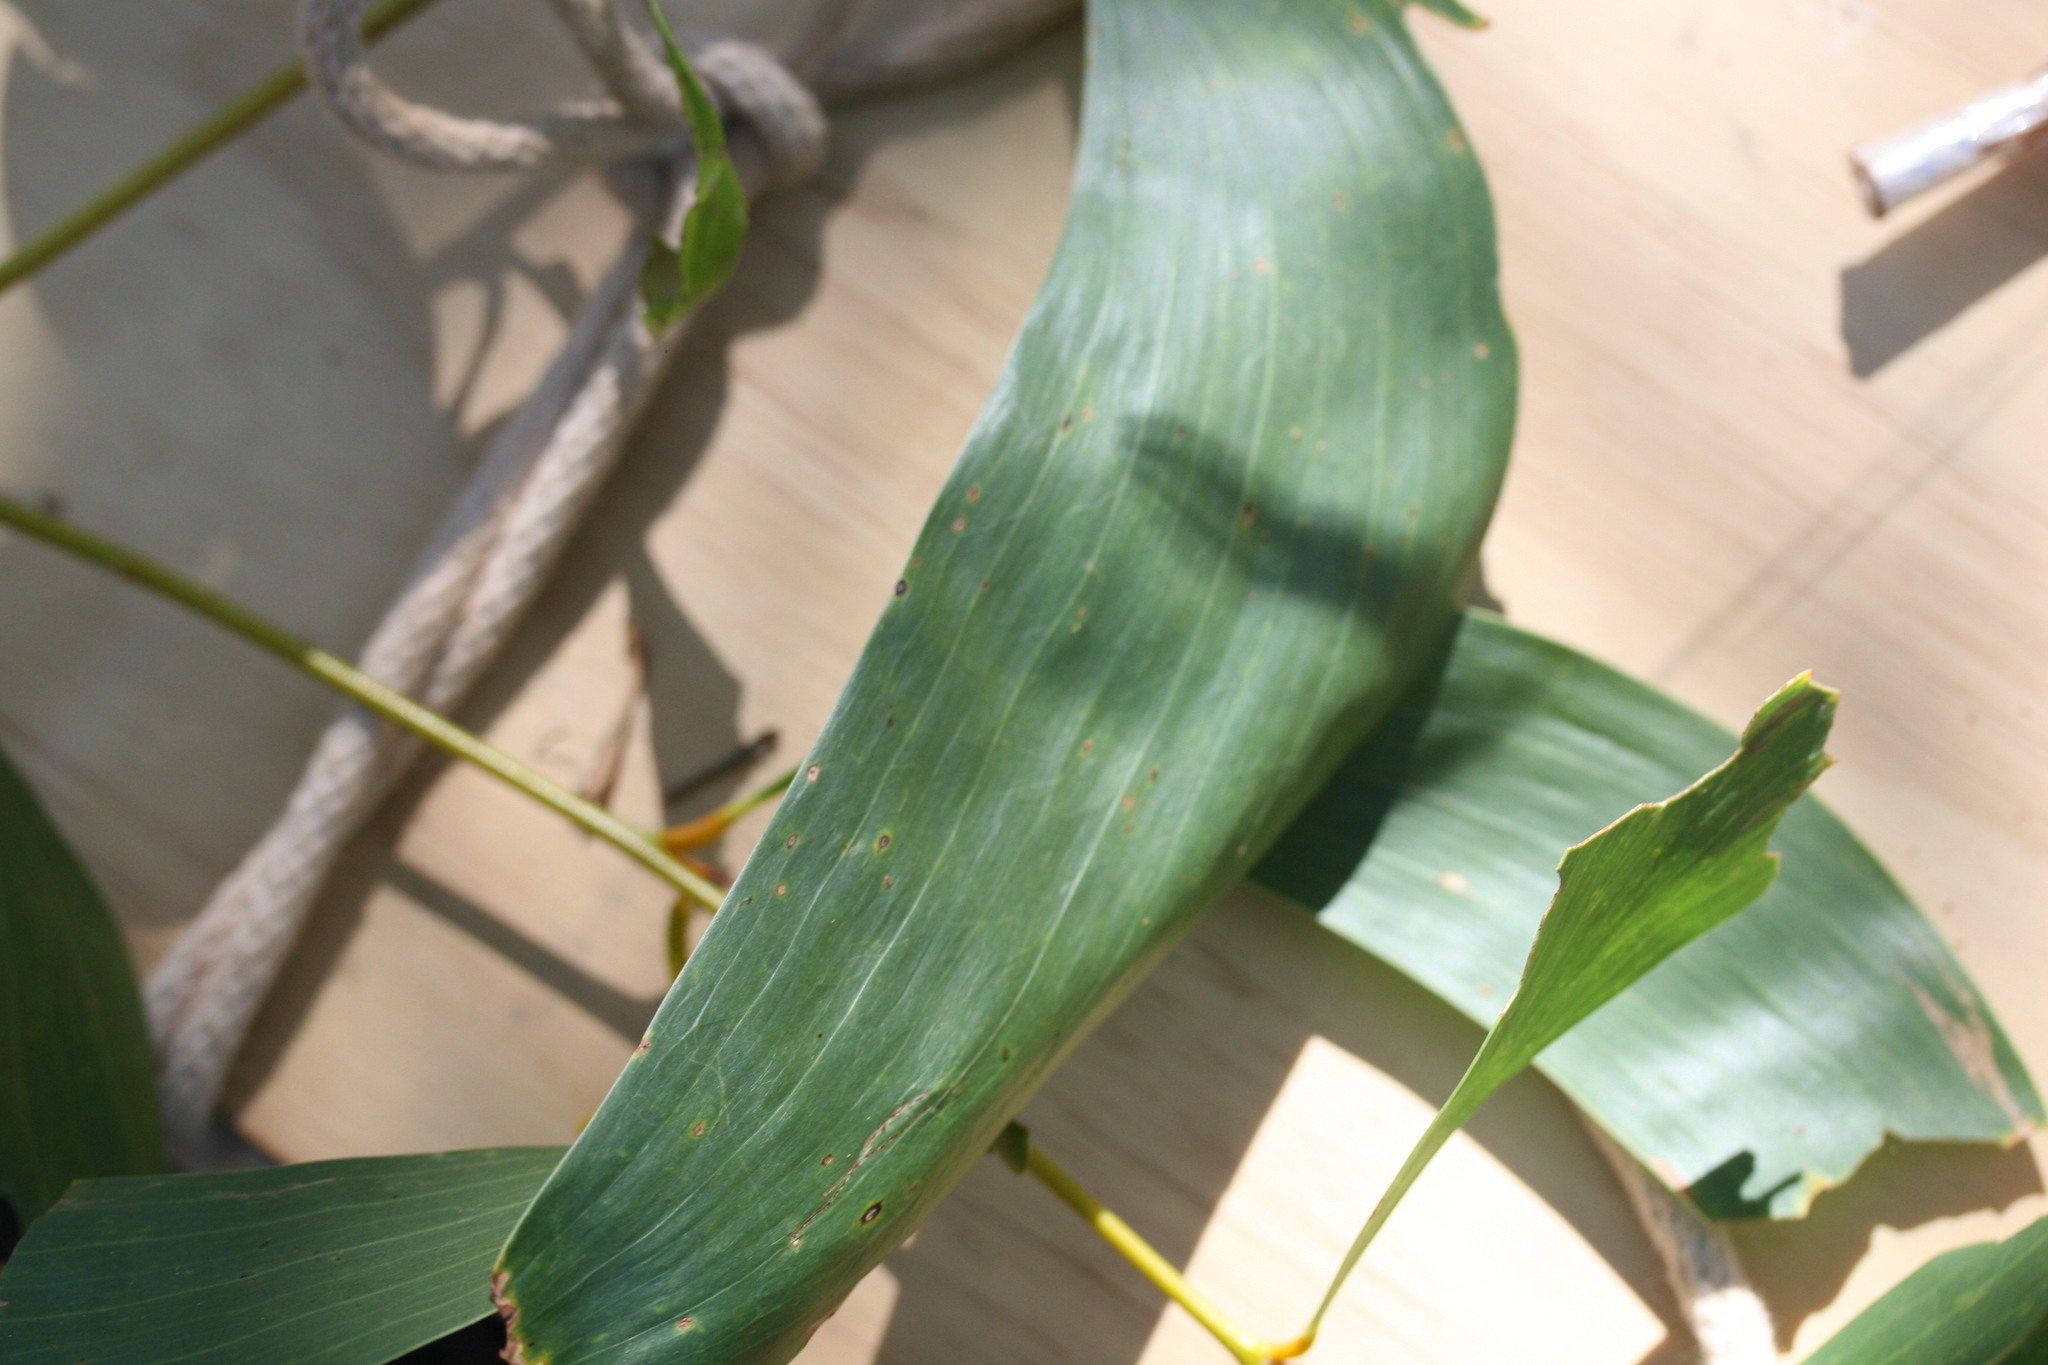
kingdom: Plantae
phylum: Tracheophyta
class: Magnoliopsida
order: Fabales
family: Fabaceae
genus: Acacia
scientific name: Acacia tumida
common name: Pindan wattle
